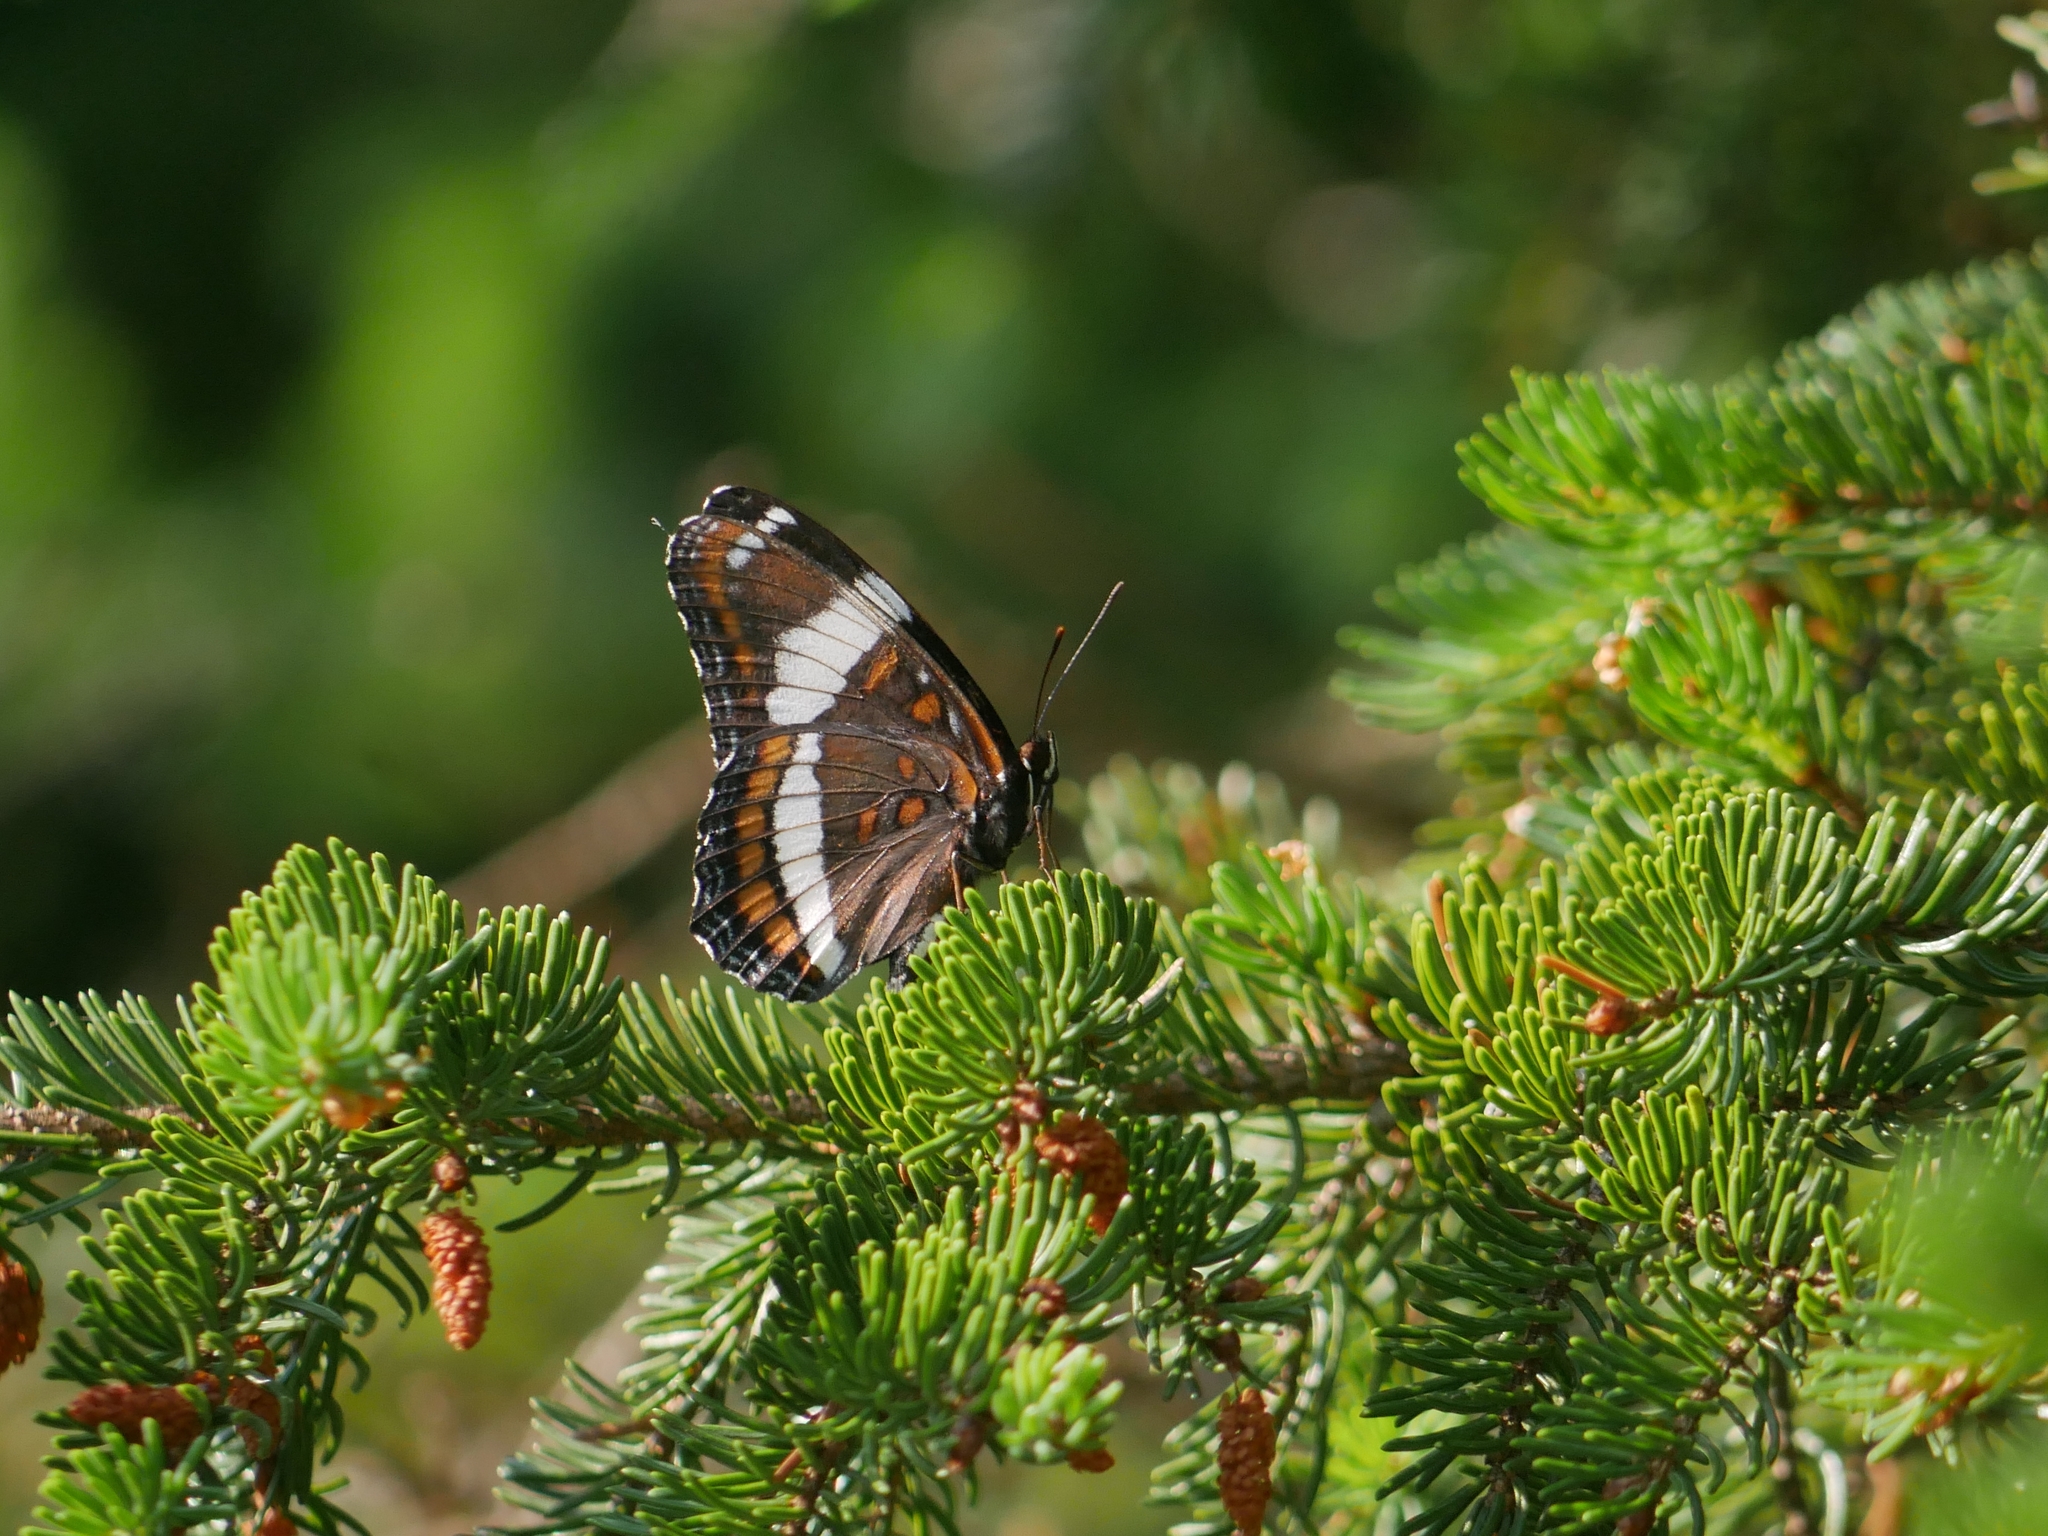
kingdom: Animalia
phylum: Arthropoda
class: Insecta
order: Lepidoptera
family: Nymphalidae
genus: Limenitis
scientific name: Limenitis arthemis
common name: Red-spotted admiral
